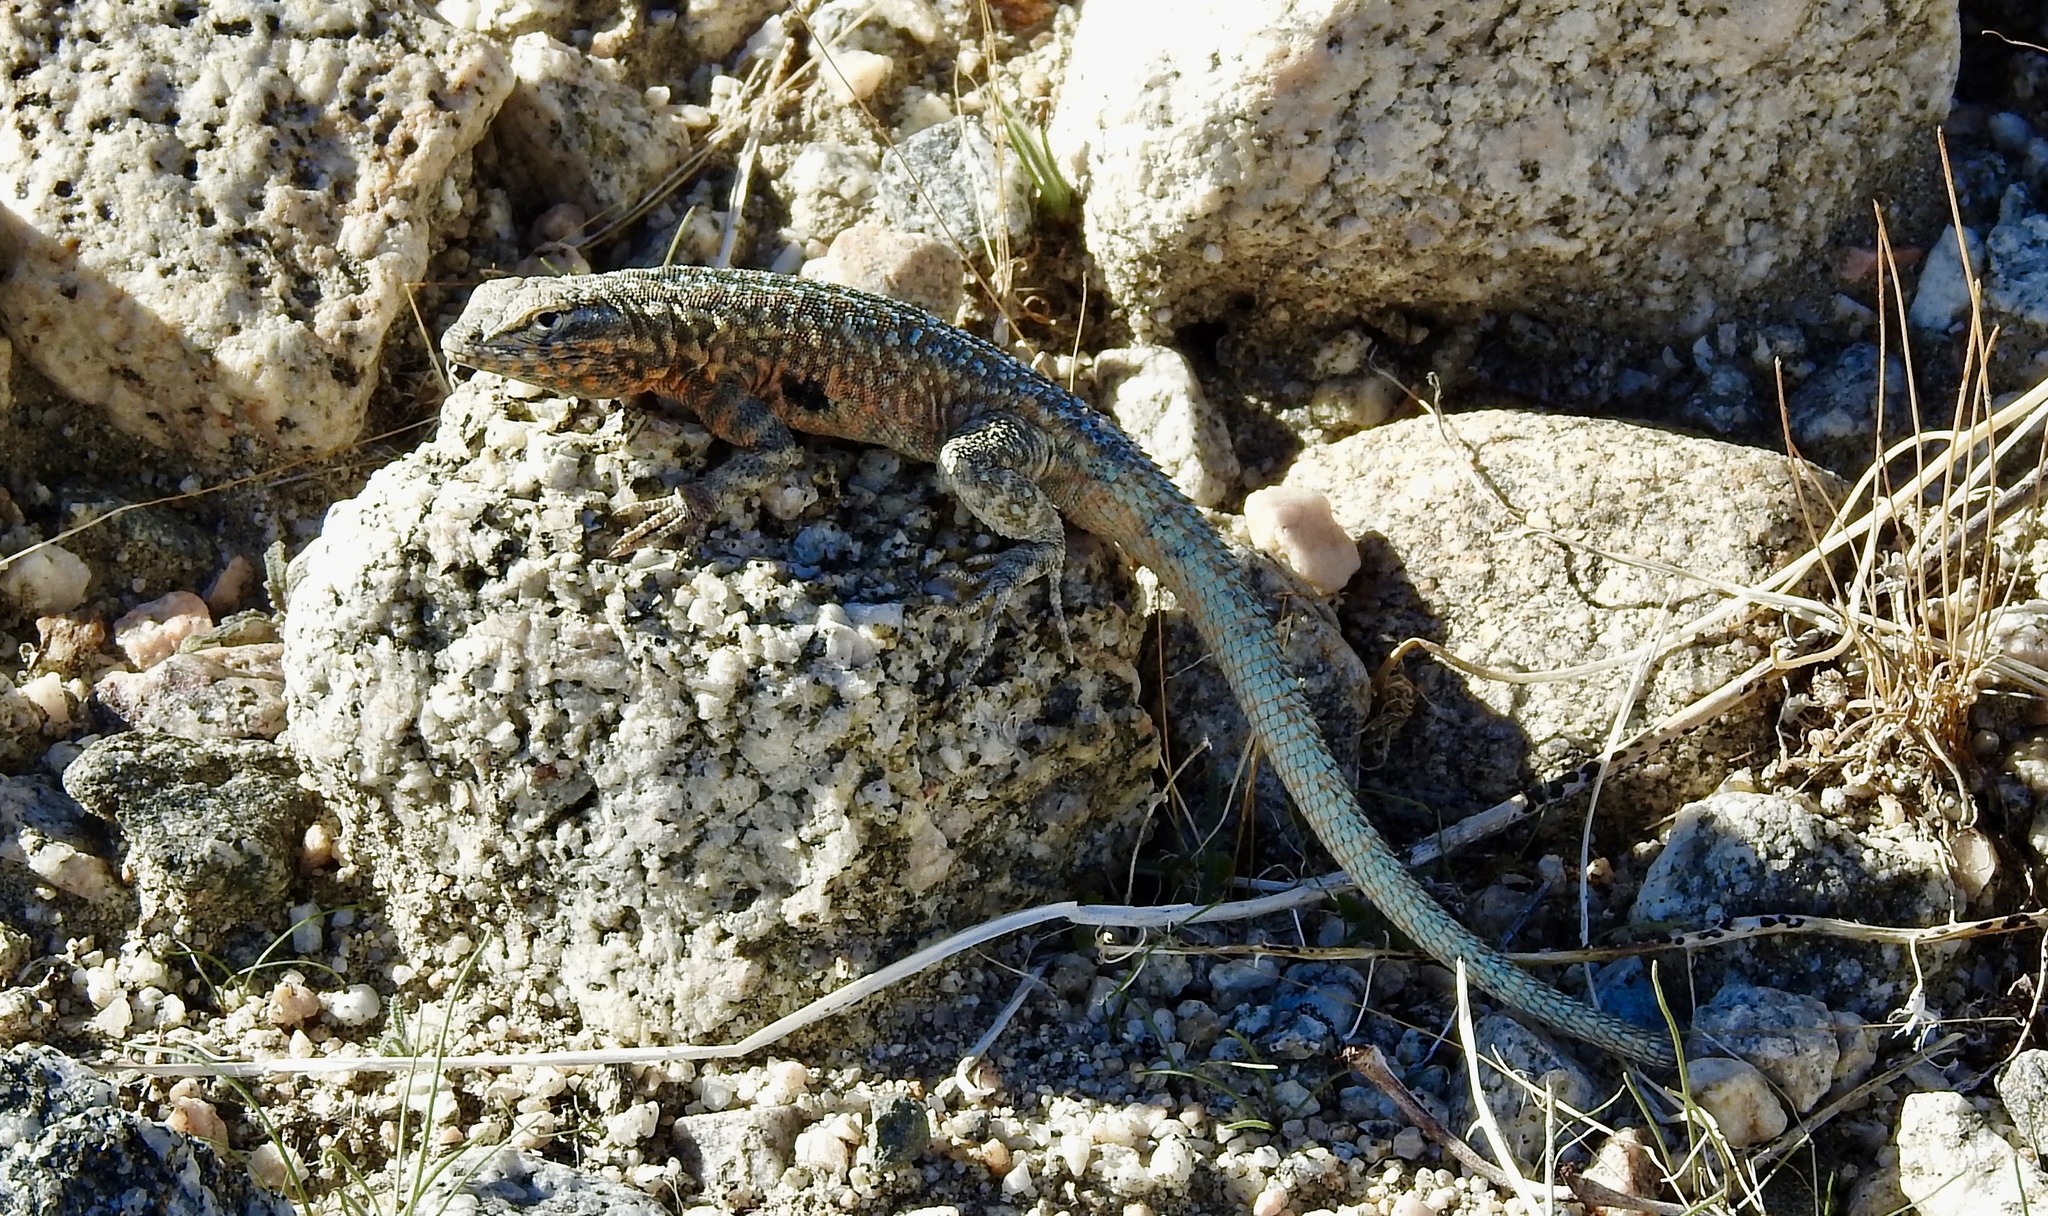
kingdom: Animalia
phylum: Chordata
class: Squamata
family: Phrynosomatidae
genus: Uta
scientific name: Uta stansburiana
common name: Side-blotched lizard
